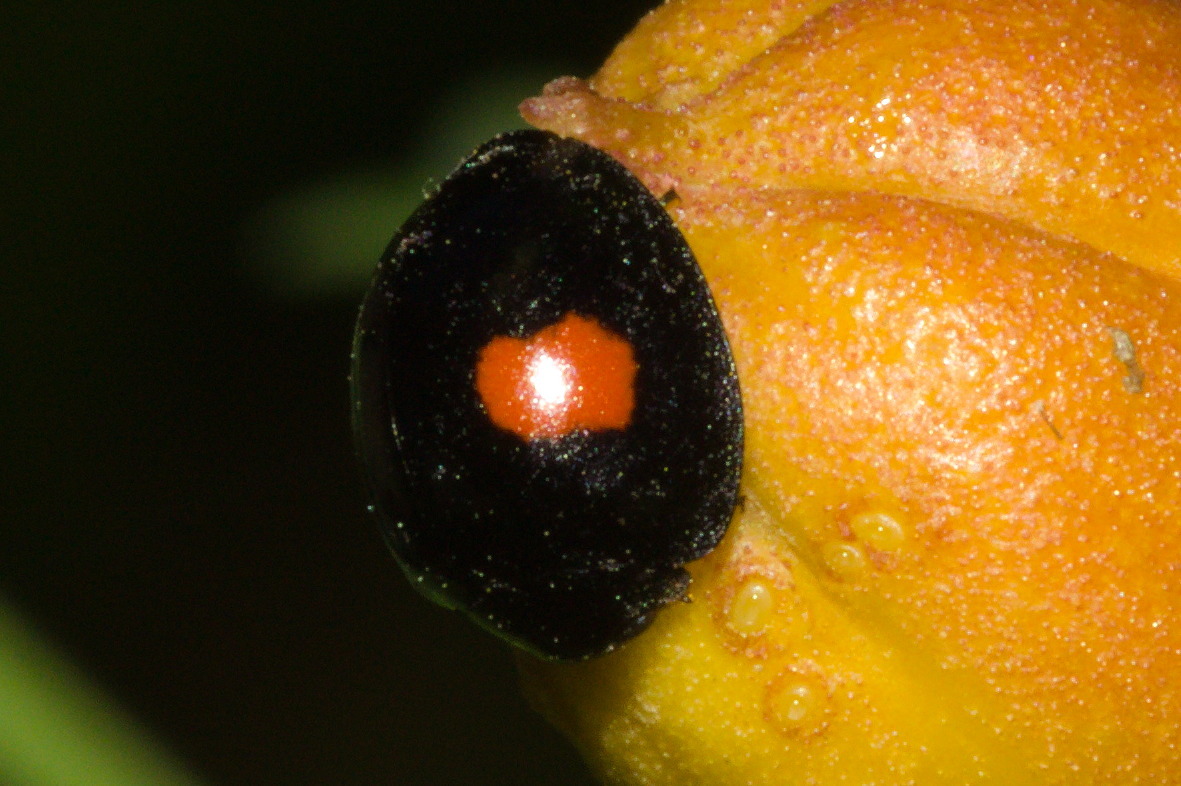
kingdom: Animalia
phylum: Arthropoda
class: Insecta
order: Coleoptera
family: Coccinellidae
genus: Chilocorus
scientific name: Chilocorus renipustulatus
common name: Kidney-spot ladybird
